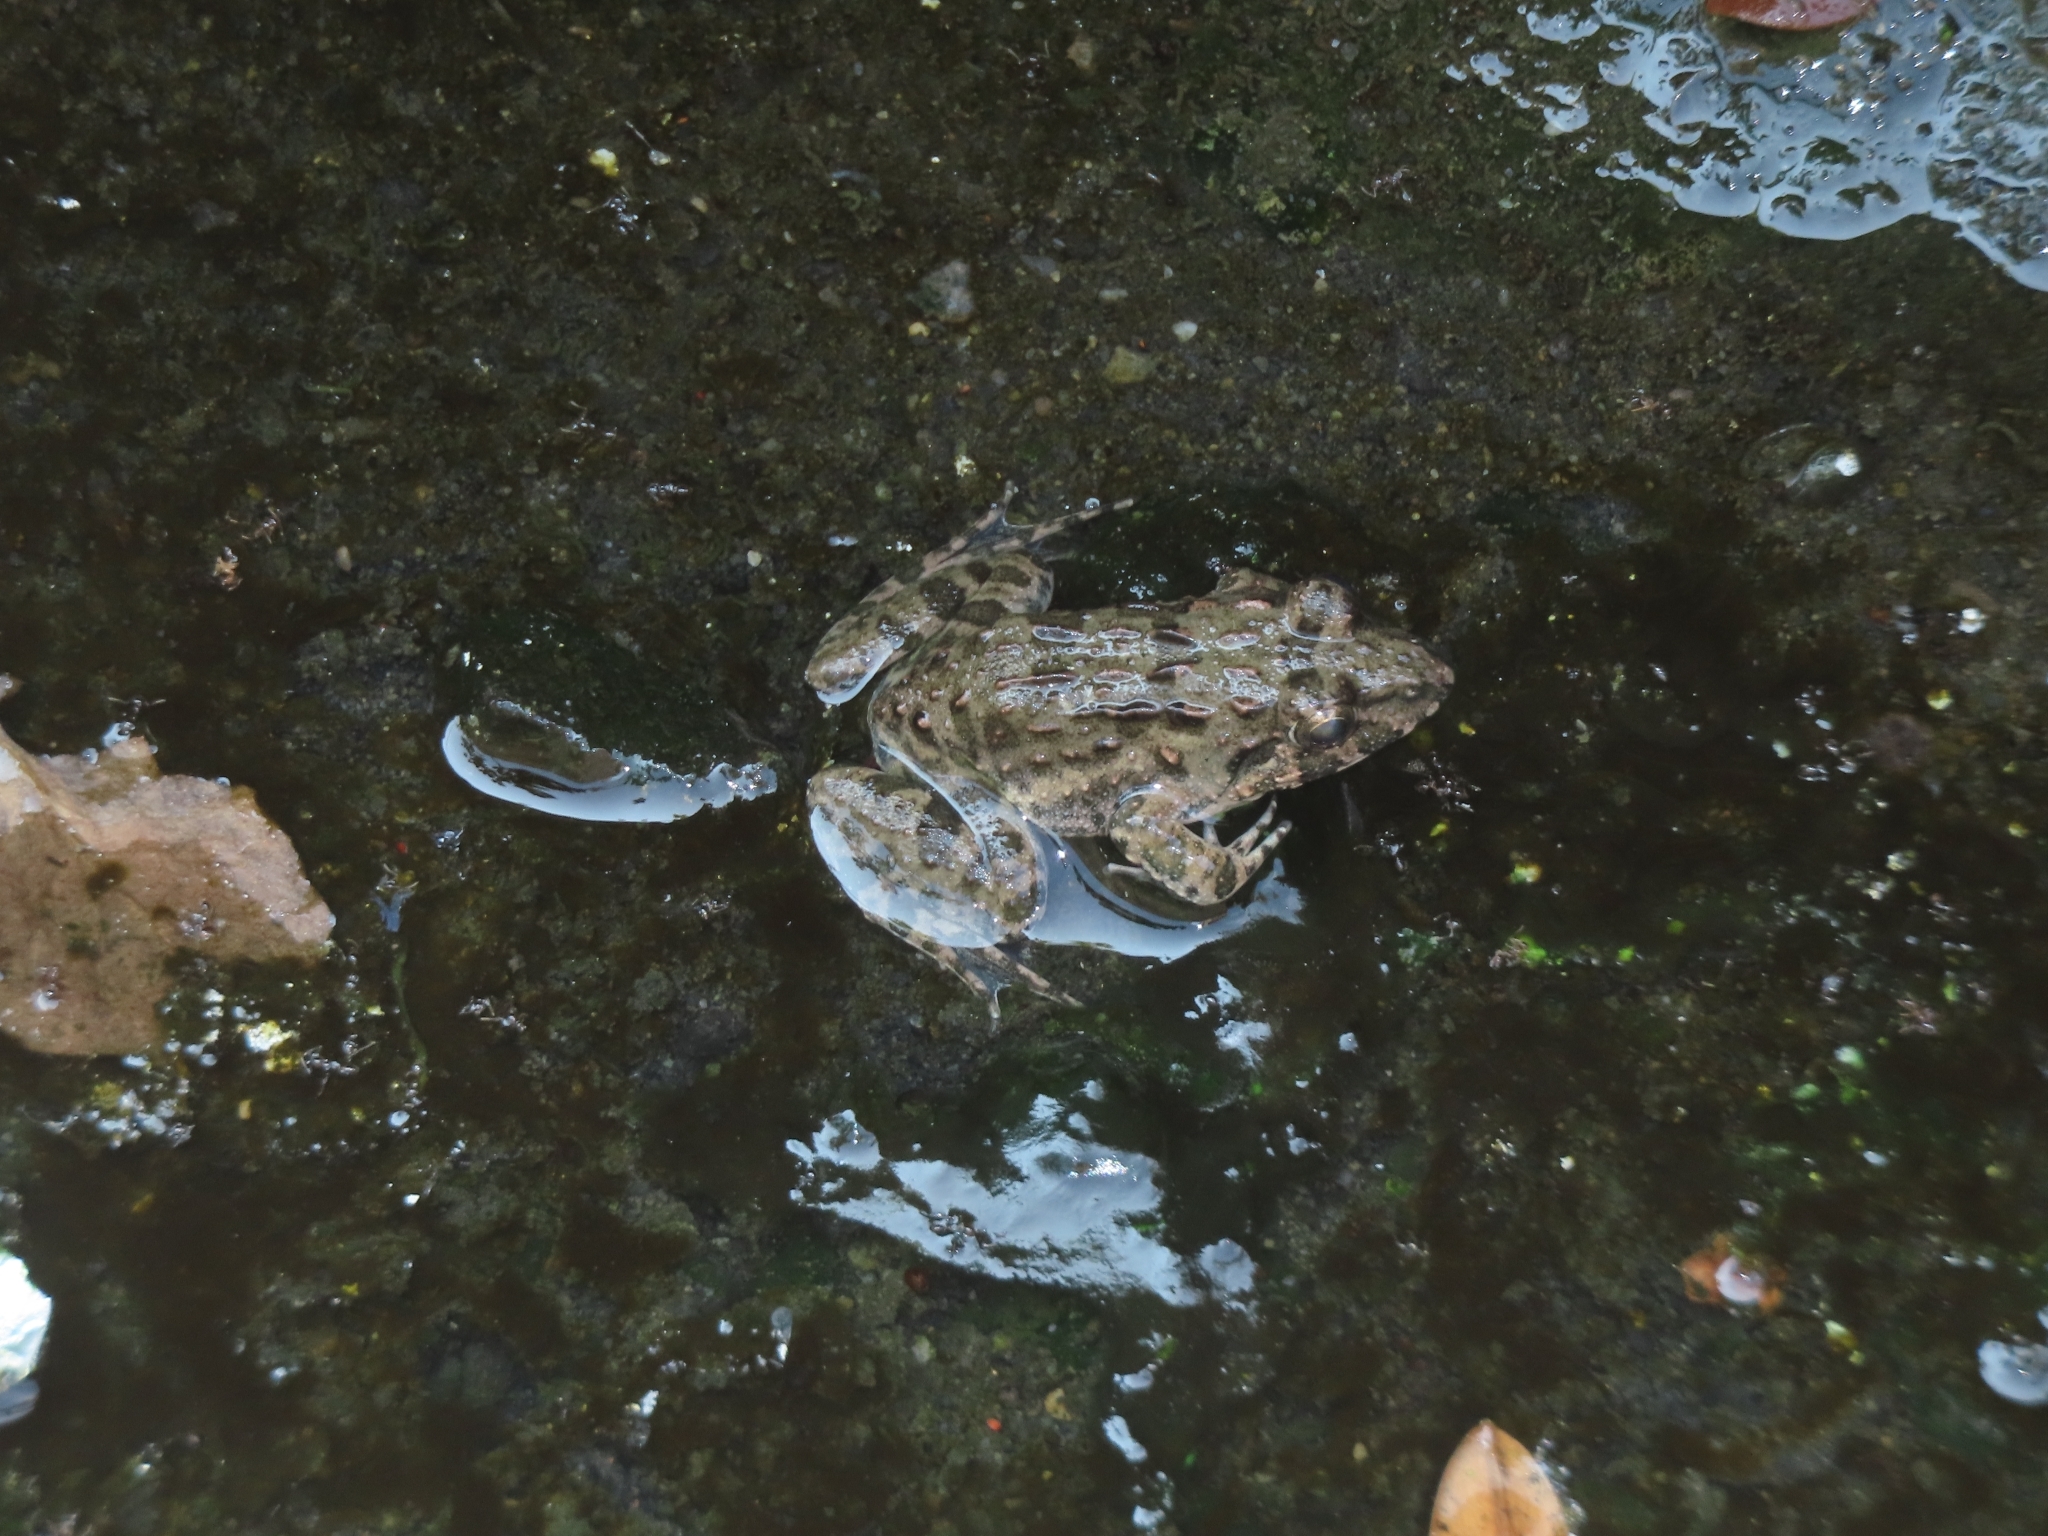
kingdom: Animalia
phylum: Chordata
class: Amphibia
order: Anura
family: Dicroglossidae
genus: Fejervarya
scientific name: Fejervarya limnocharis
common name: Asian grass frog/common pond frog/field frog/grass frog/indian rice frog
